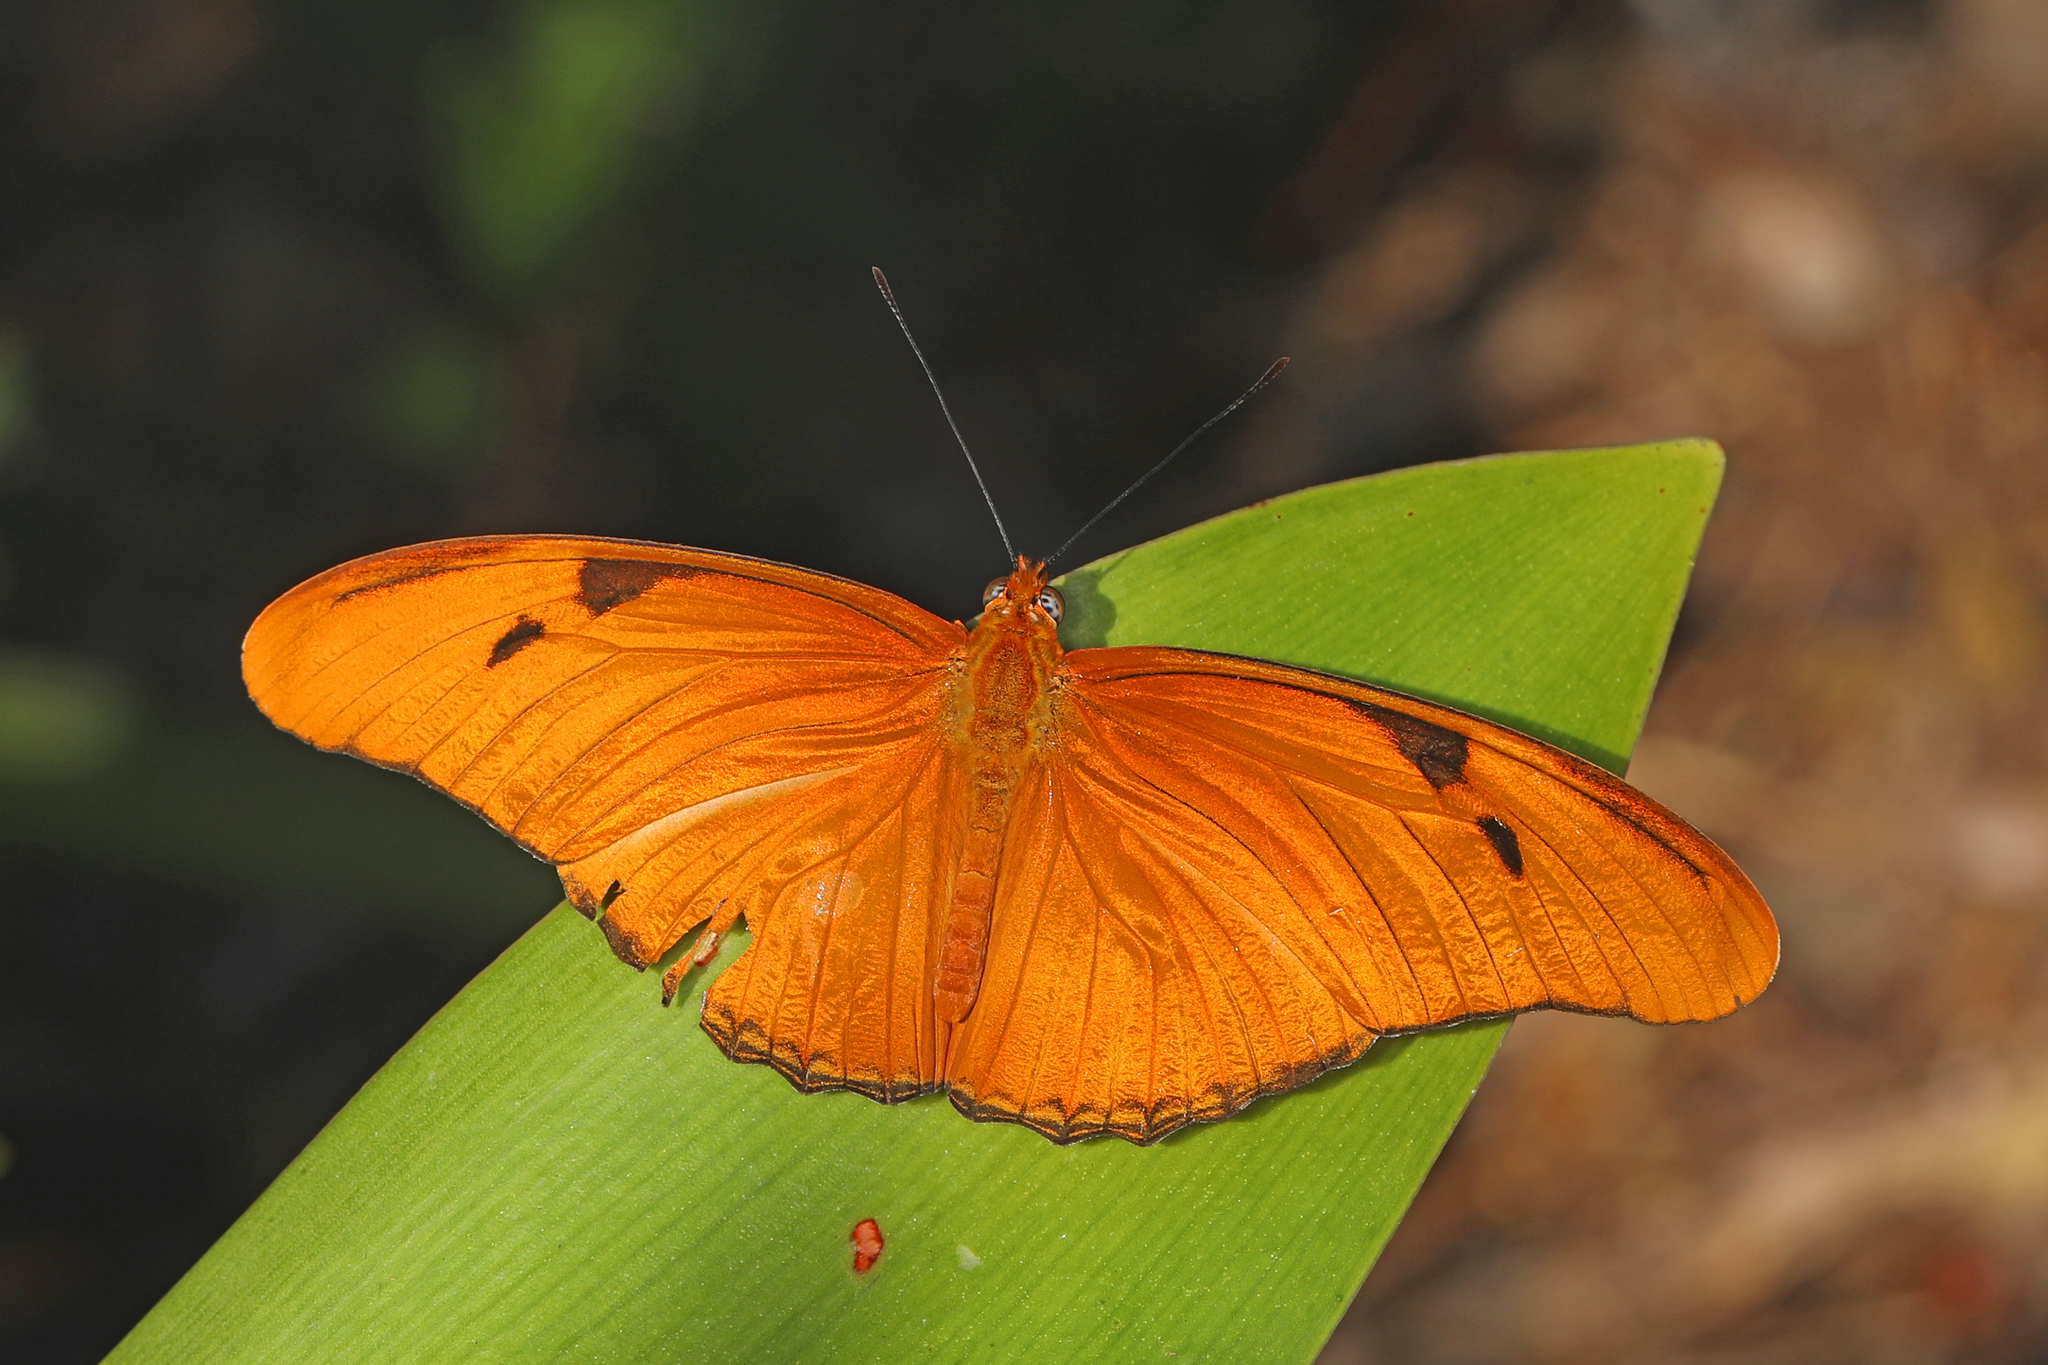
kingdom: Animalia
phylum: Arthropoda
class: Insecta
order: Lepidoptera
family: Nymphalidae
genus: Dryas
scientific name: Dryas iulia
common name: Flambeau
